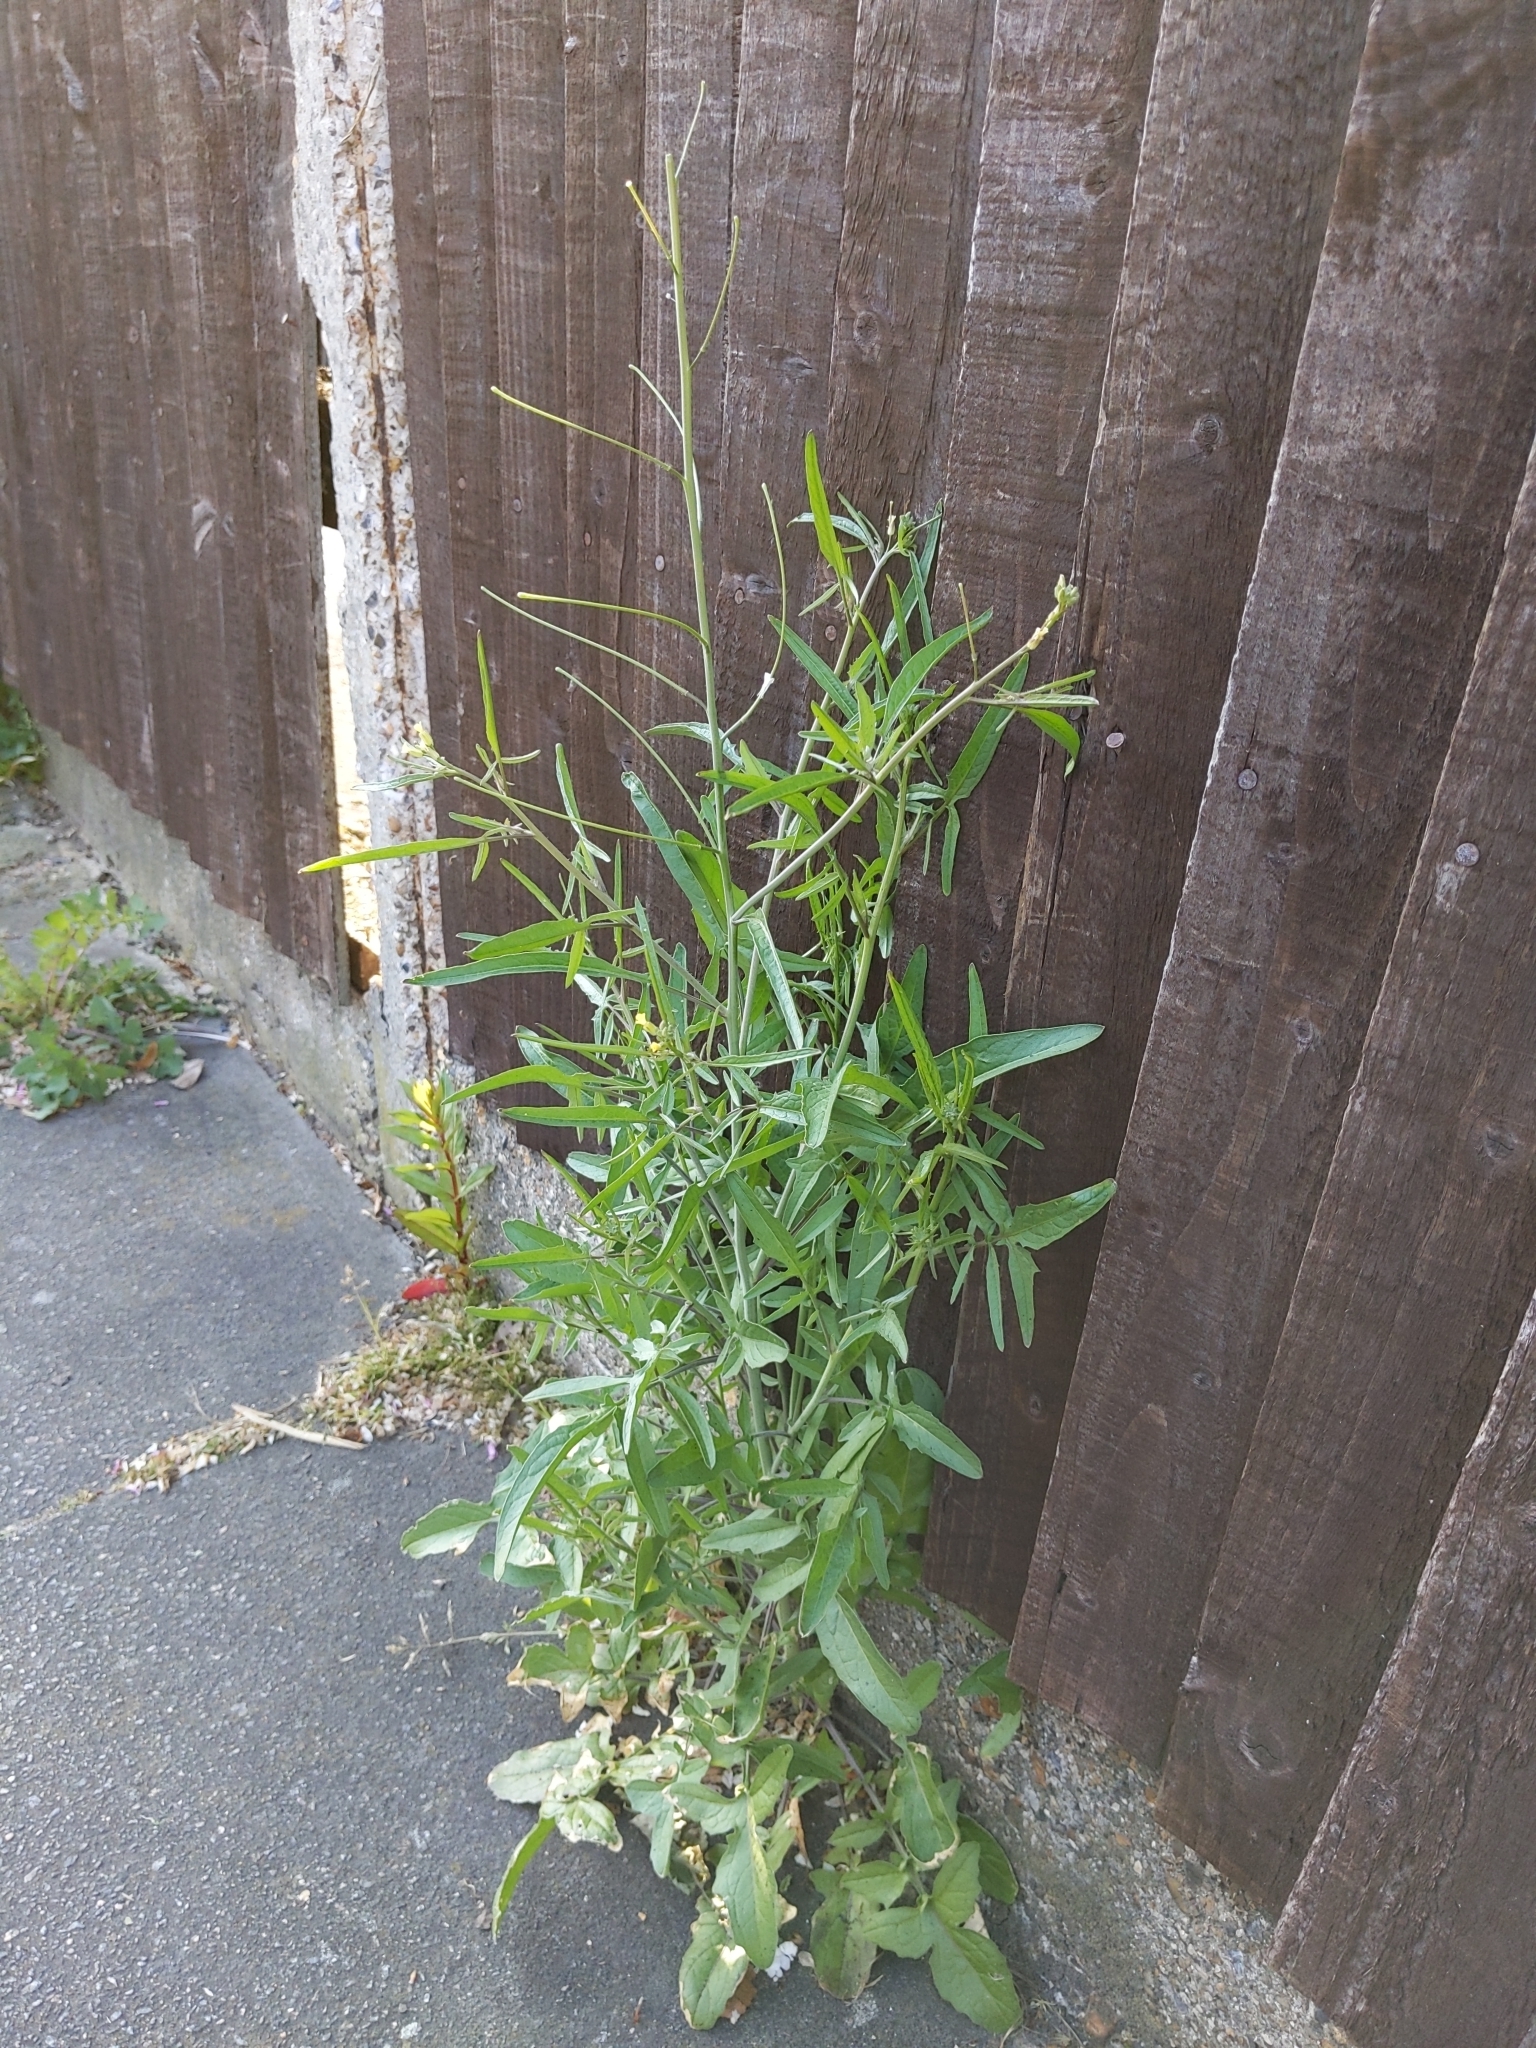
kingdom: Plantae
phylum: Tracheophyta
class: Magnoliopsida
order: Brassicales
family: Brassicaceae
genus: Sisymbrium
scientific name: Sisymbrium orientale
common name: Eastern rocket
